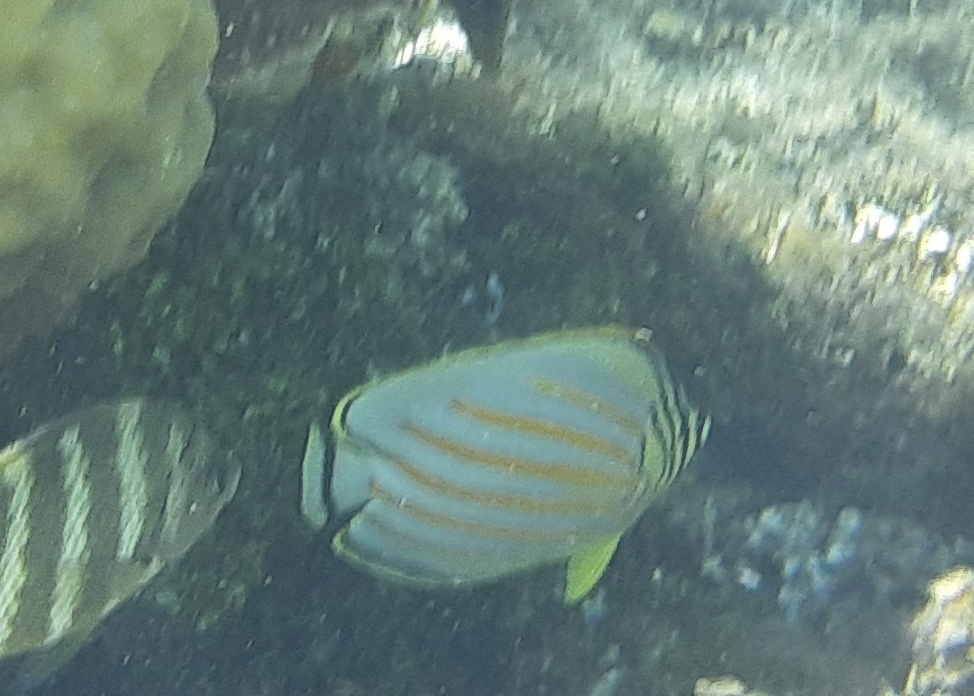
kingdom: Animalia
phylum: Chordata
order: Perciformes
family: Chaetodontidae
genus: Chaetodon
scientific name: Chaetodon ornatissimus
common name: Ornate butterflyfish
